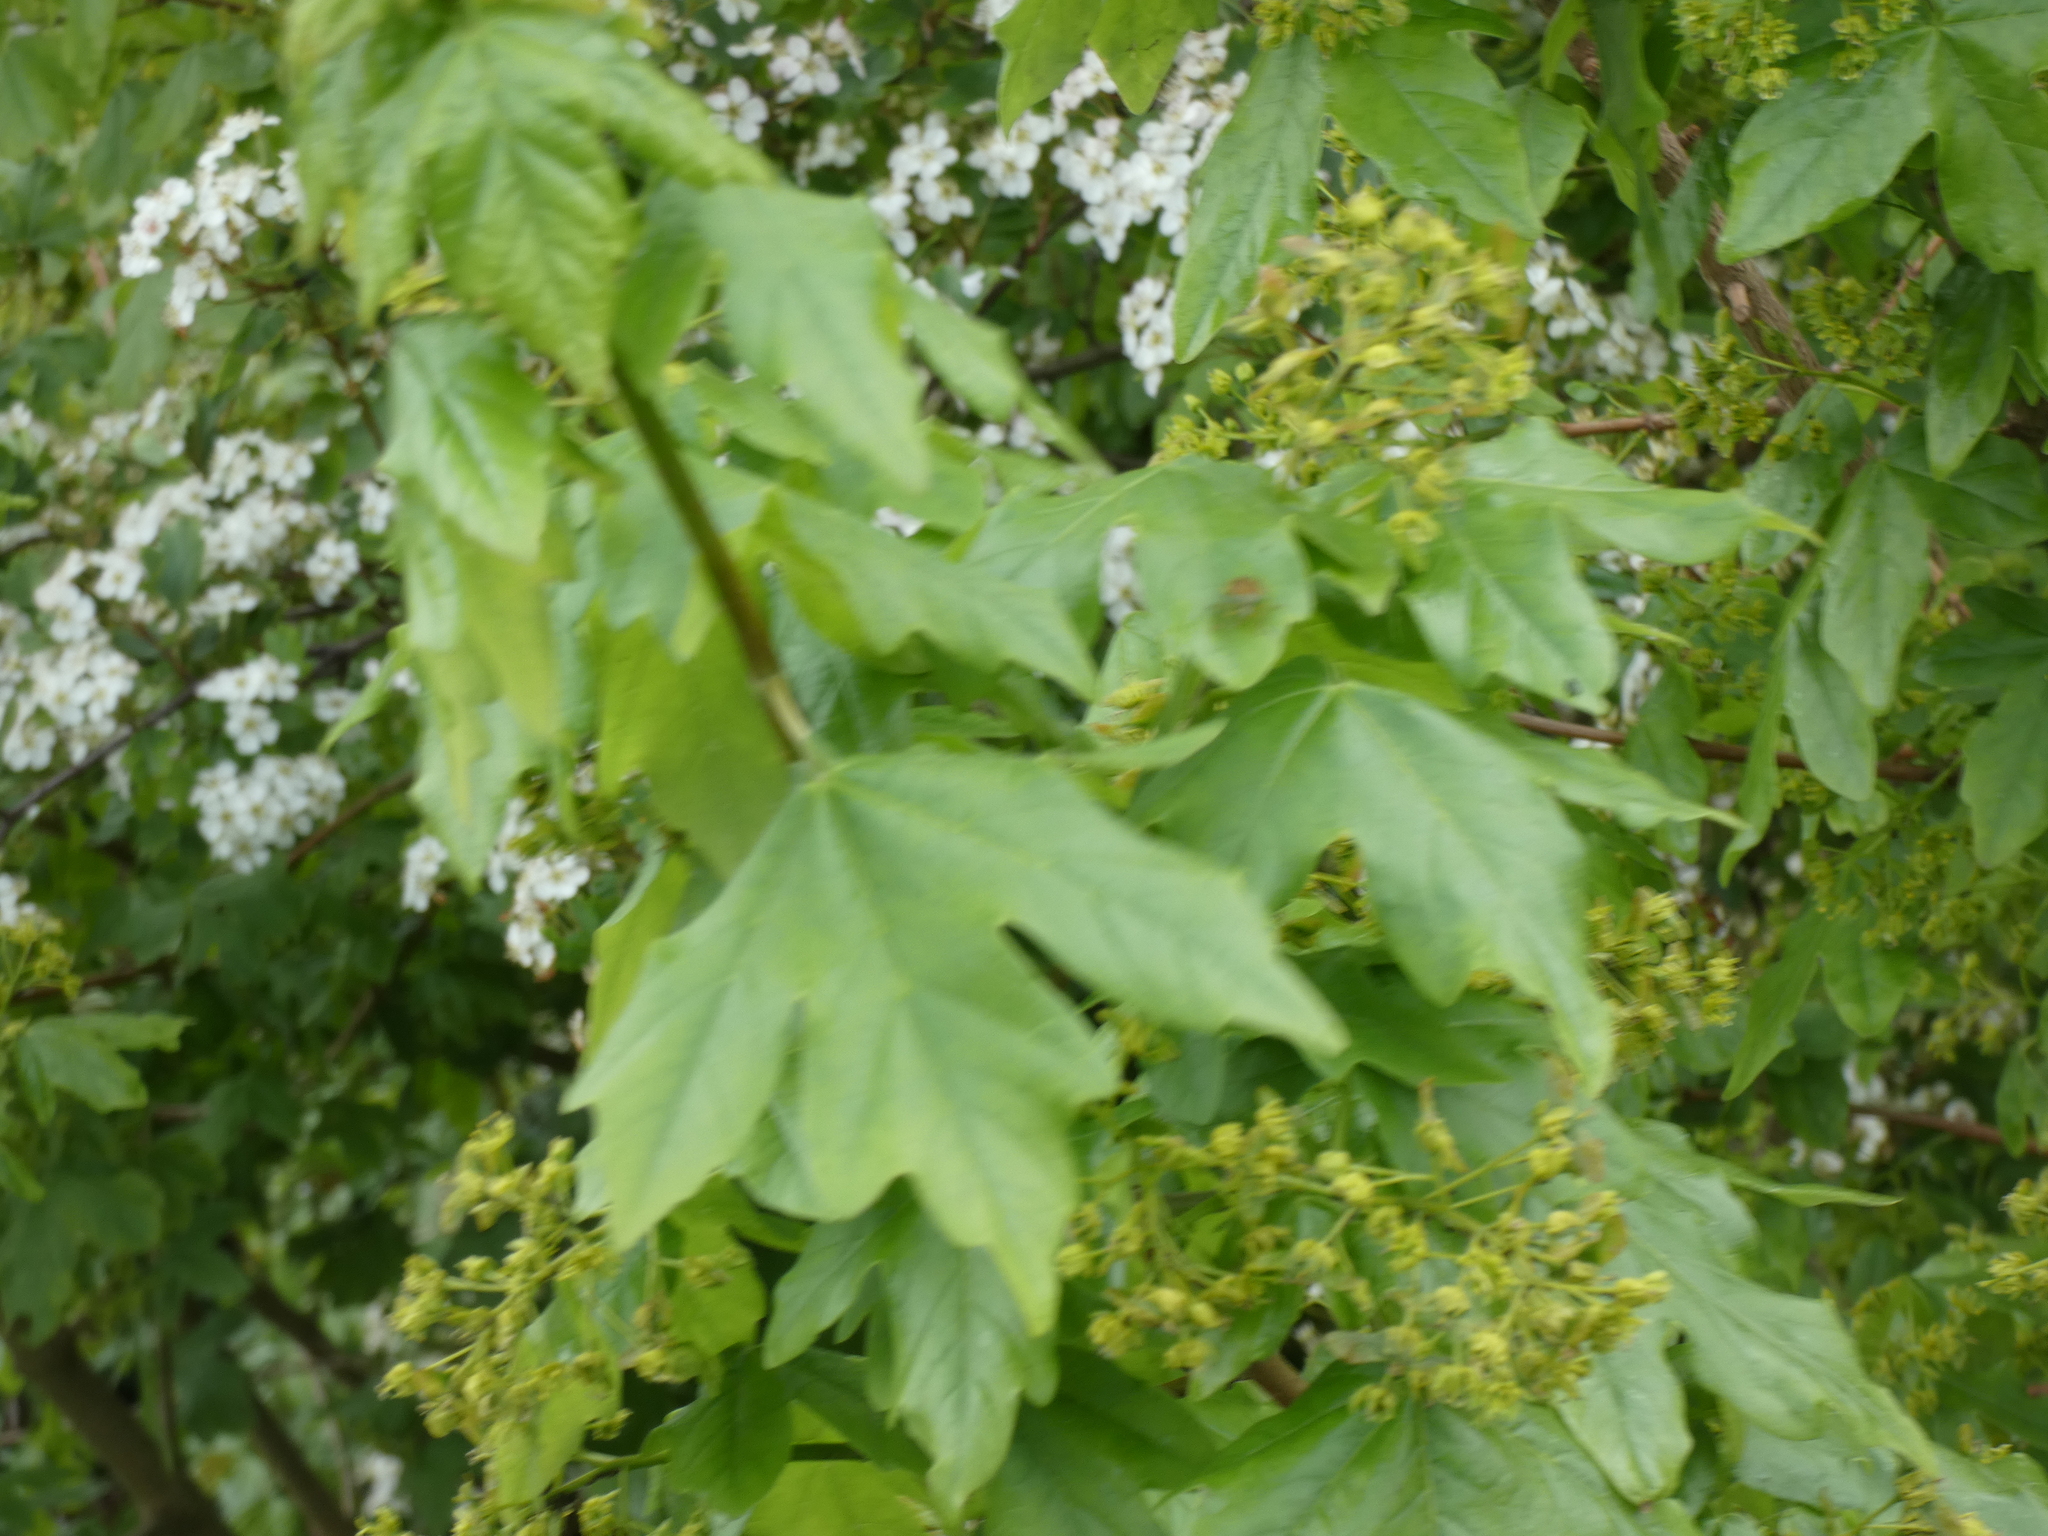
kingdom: Plantae
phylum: Tracheophyta
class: Magnoliopsida
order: Sapindales
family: Sapindaceae
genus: Acer
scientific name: Acer campestre
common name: Field maple
